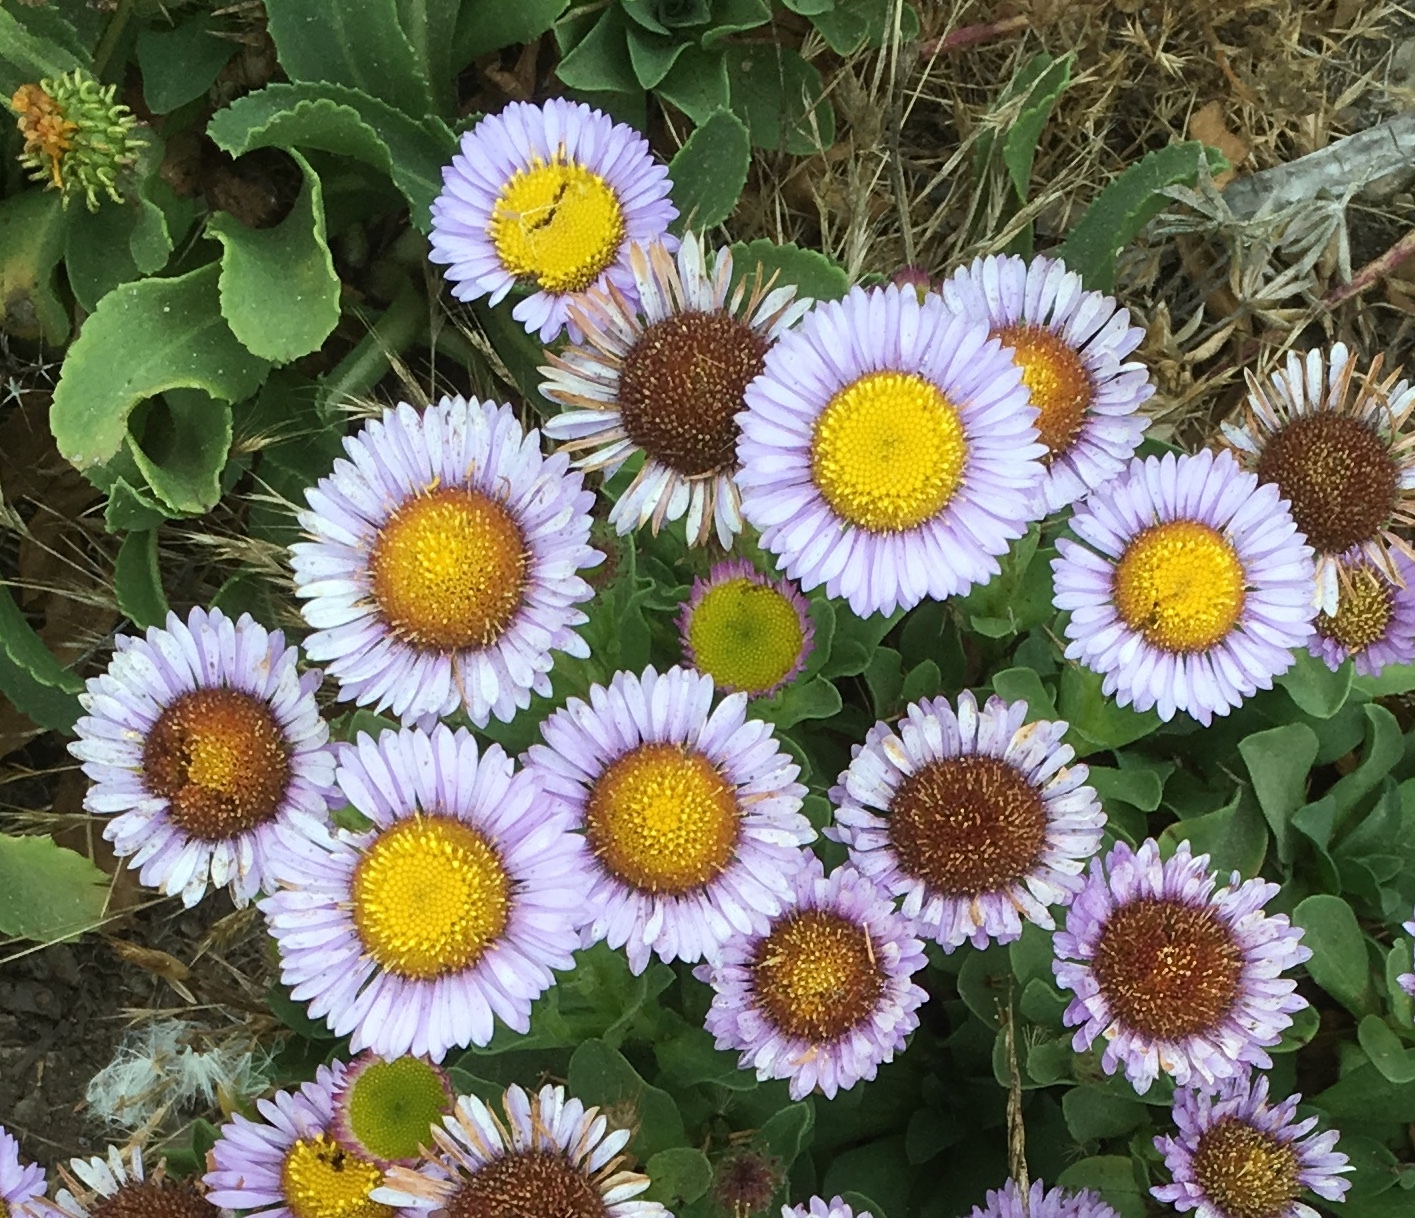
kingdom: Plantae
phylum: Tracheophyta
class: Magnoliopsida
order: Asterales
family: Asteraceae
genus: Erigeron
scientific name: Erigeron glaucus
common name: Seaside daisy
